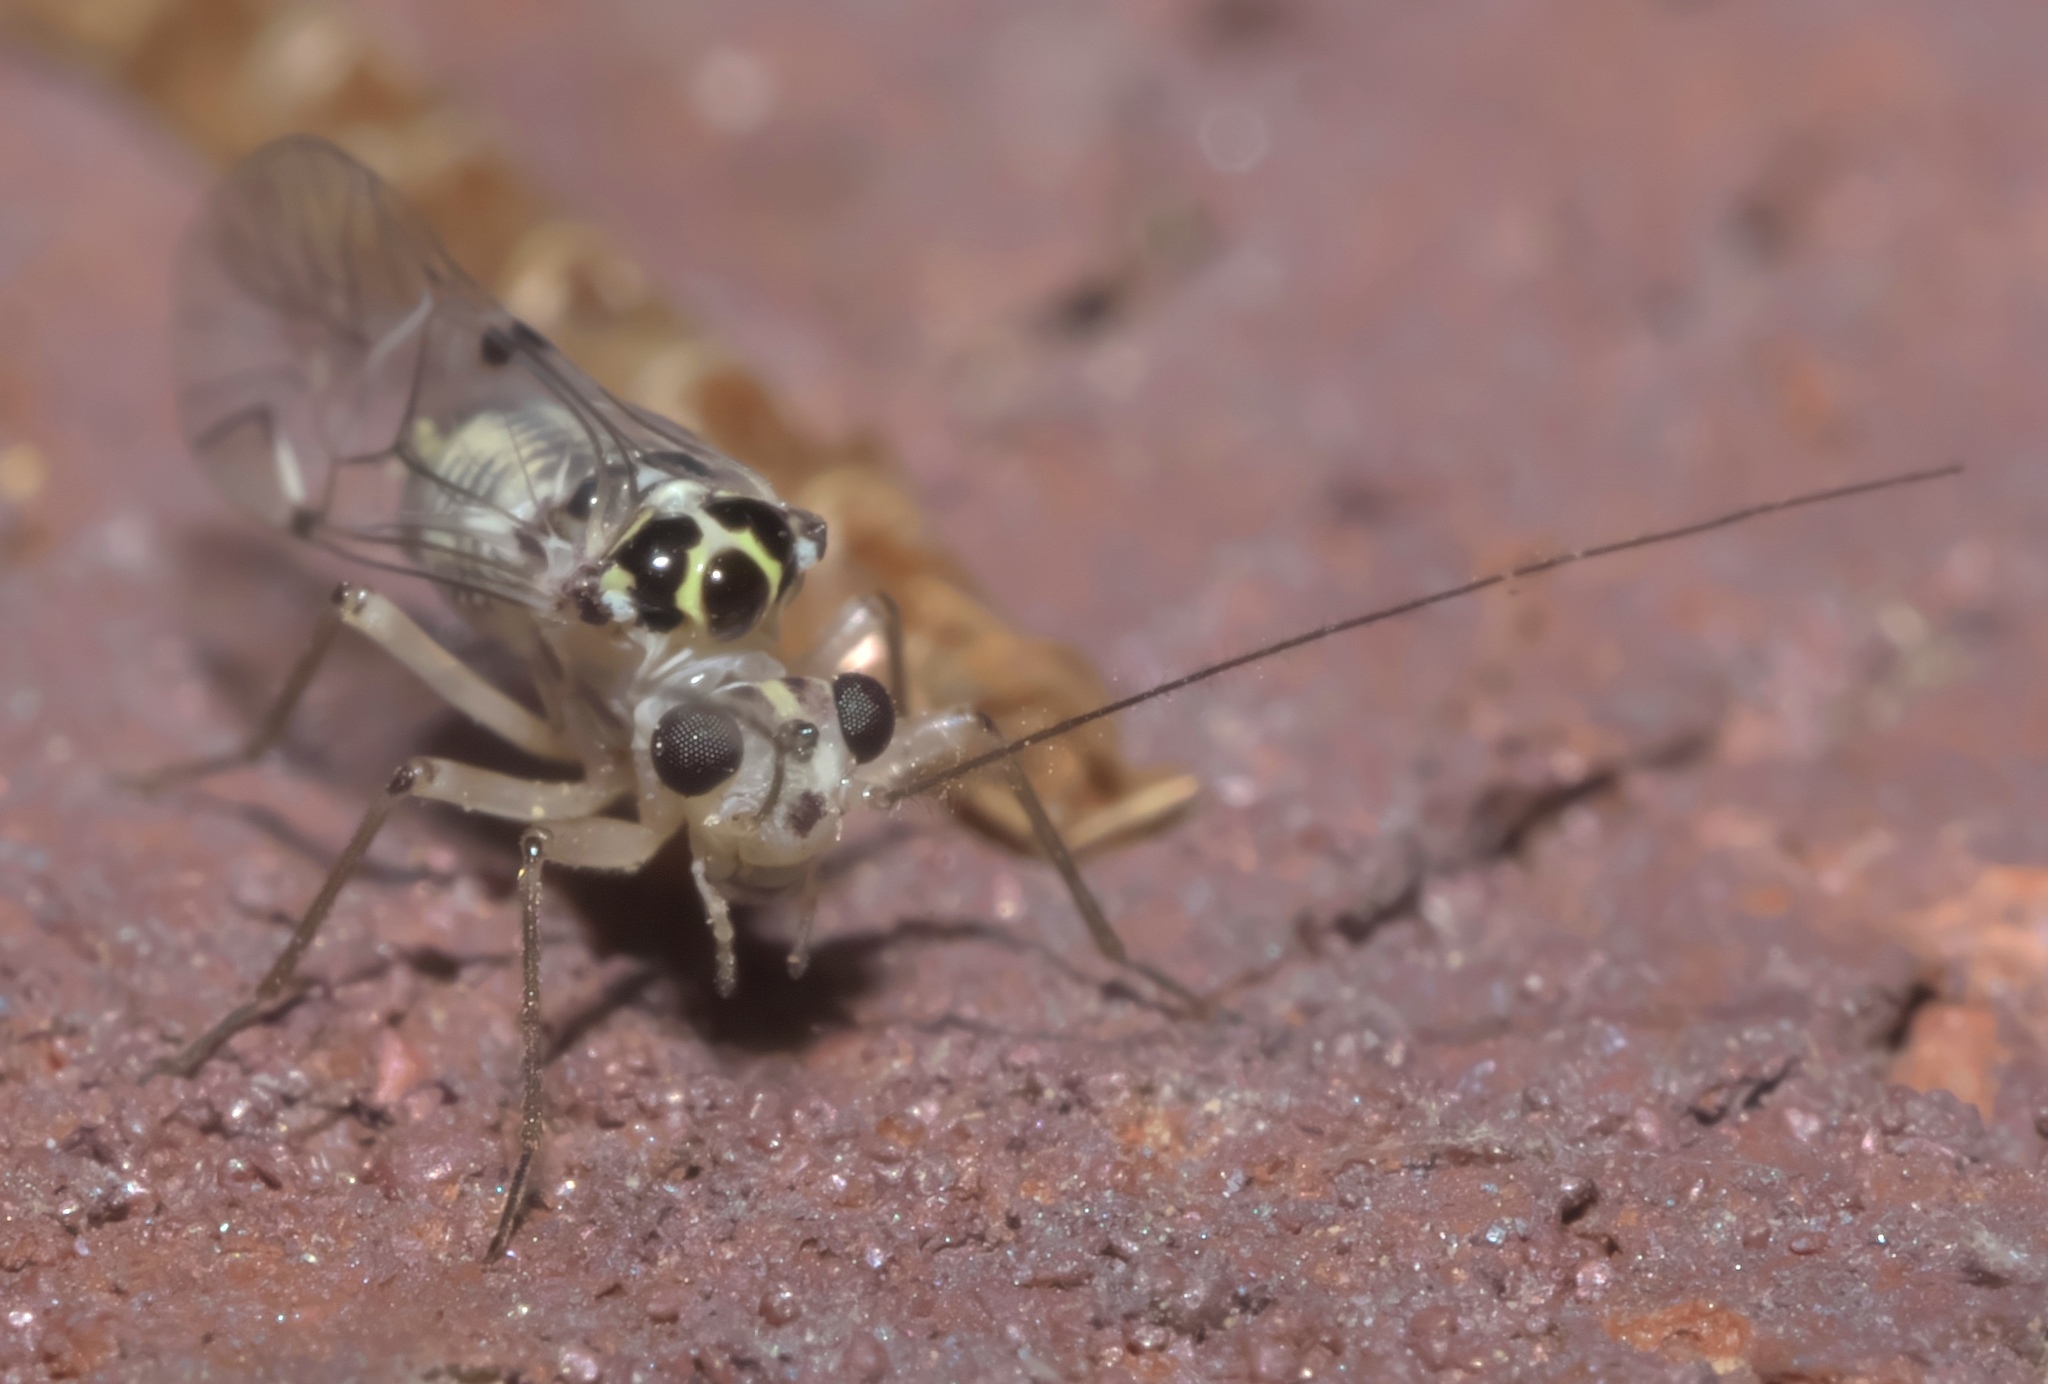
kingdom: Animalia
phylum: Arthropoda
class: Insecta
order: Psocodea
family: Psocidae
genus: Metylophorus
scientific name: Metylophorus purus
